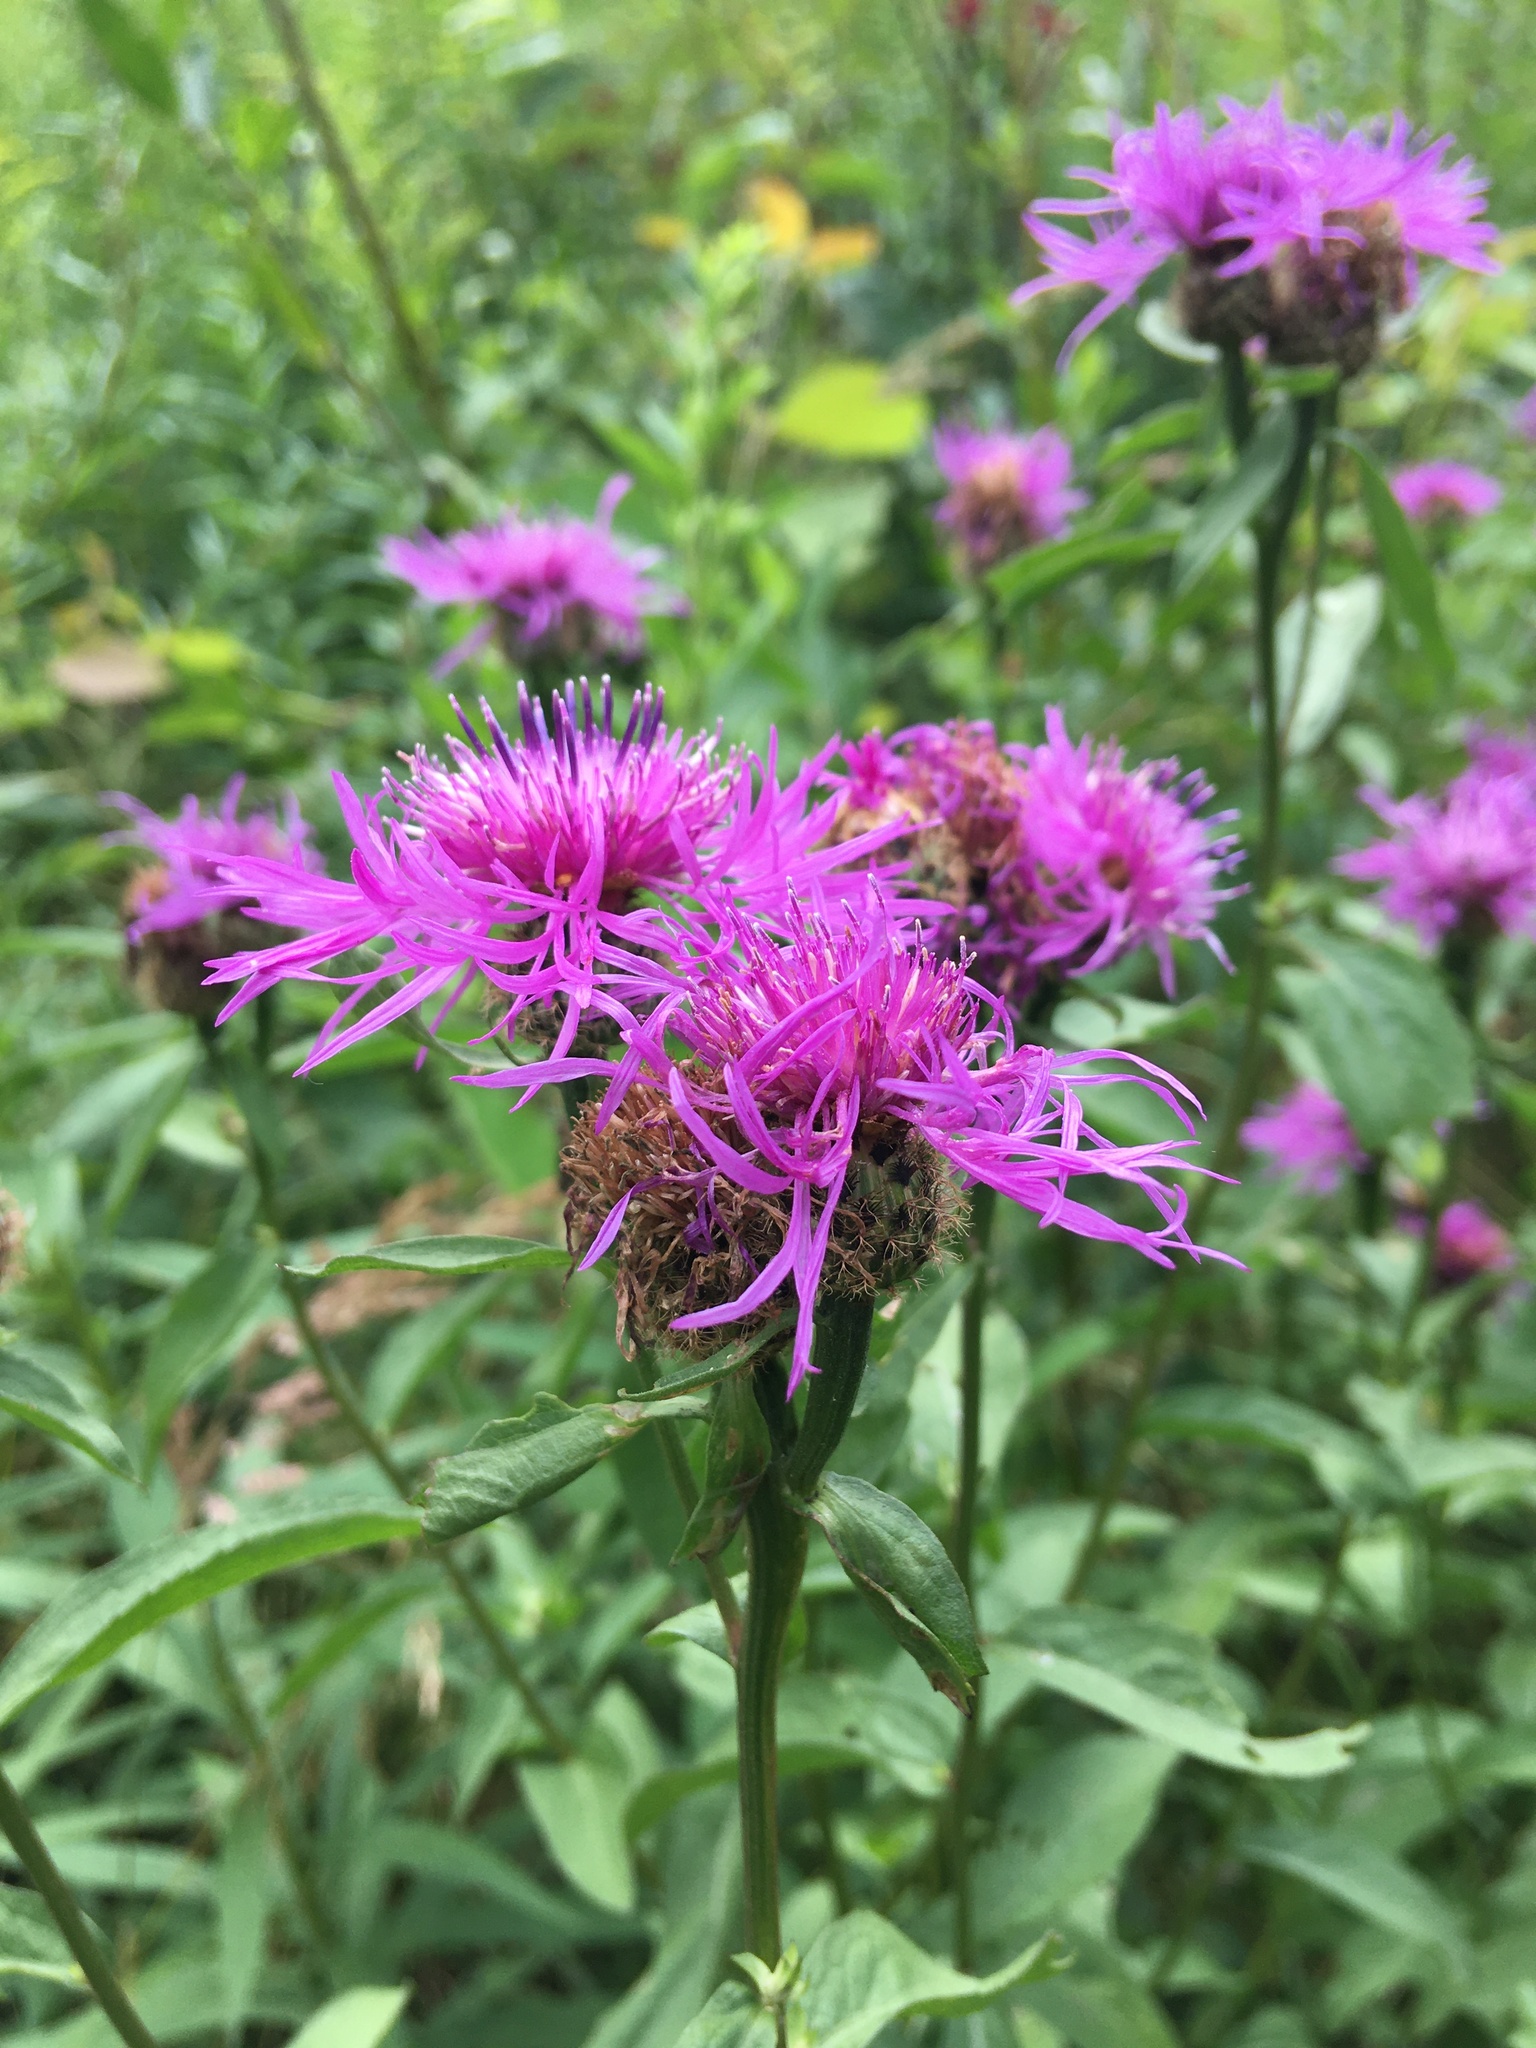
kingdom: Plantae
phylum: Tracheophyta
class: Magnoliopsida
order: Asterales
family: Asteraceae
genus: Centaurea
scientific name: Centaurea phrygia
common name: Wig knapweed
